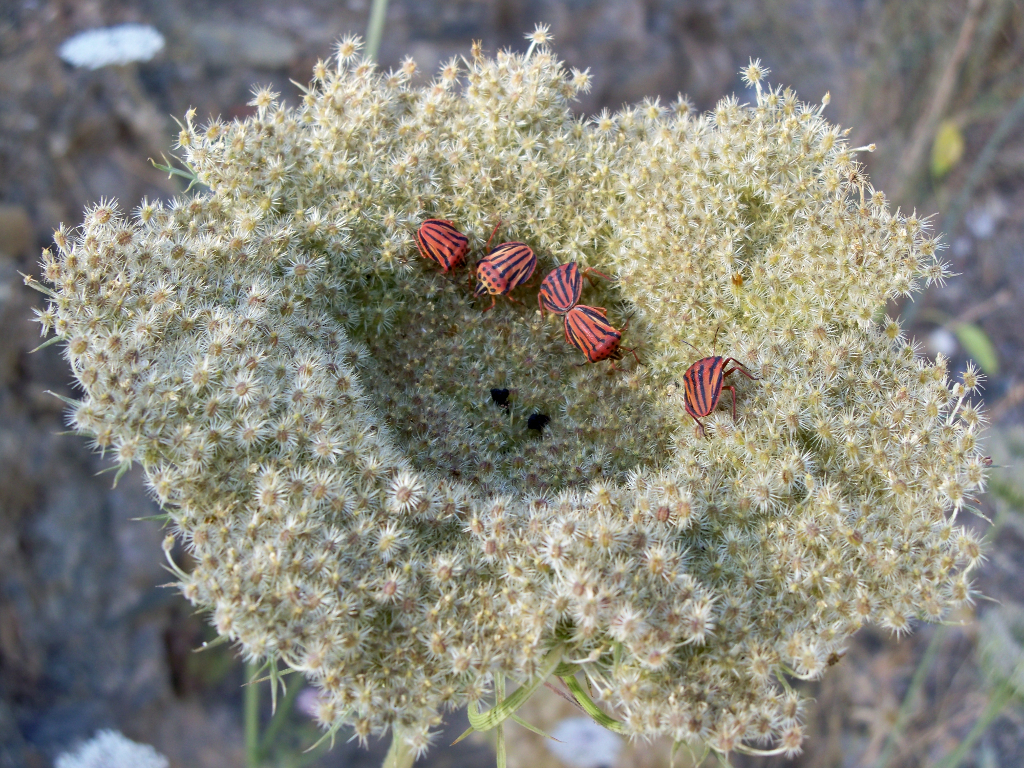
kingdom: Animalia
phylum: Arthropoda
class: Insecta
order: Hemiptera
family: Pentatomidae
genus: Graphosoma
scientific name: Graphosoma semipunctatum
